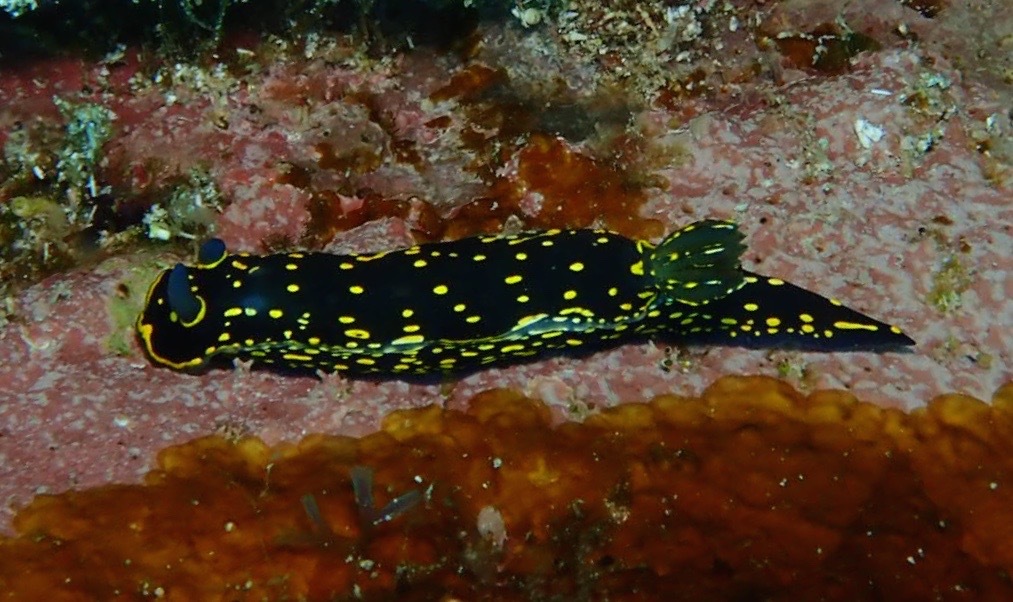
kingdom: Animalia
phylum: Mollusca
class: Gastropoda
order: Nudibranchia
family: Chromodorididae
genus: Felimare
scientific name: Felimare picta
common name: Giant doris
